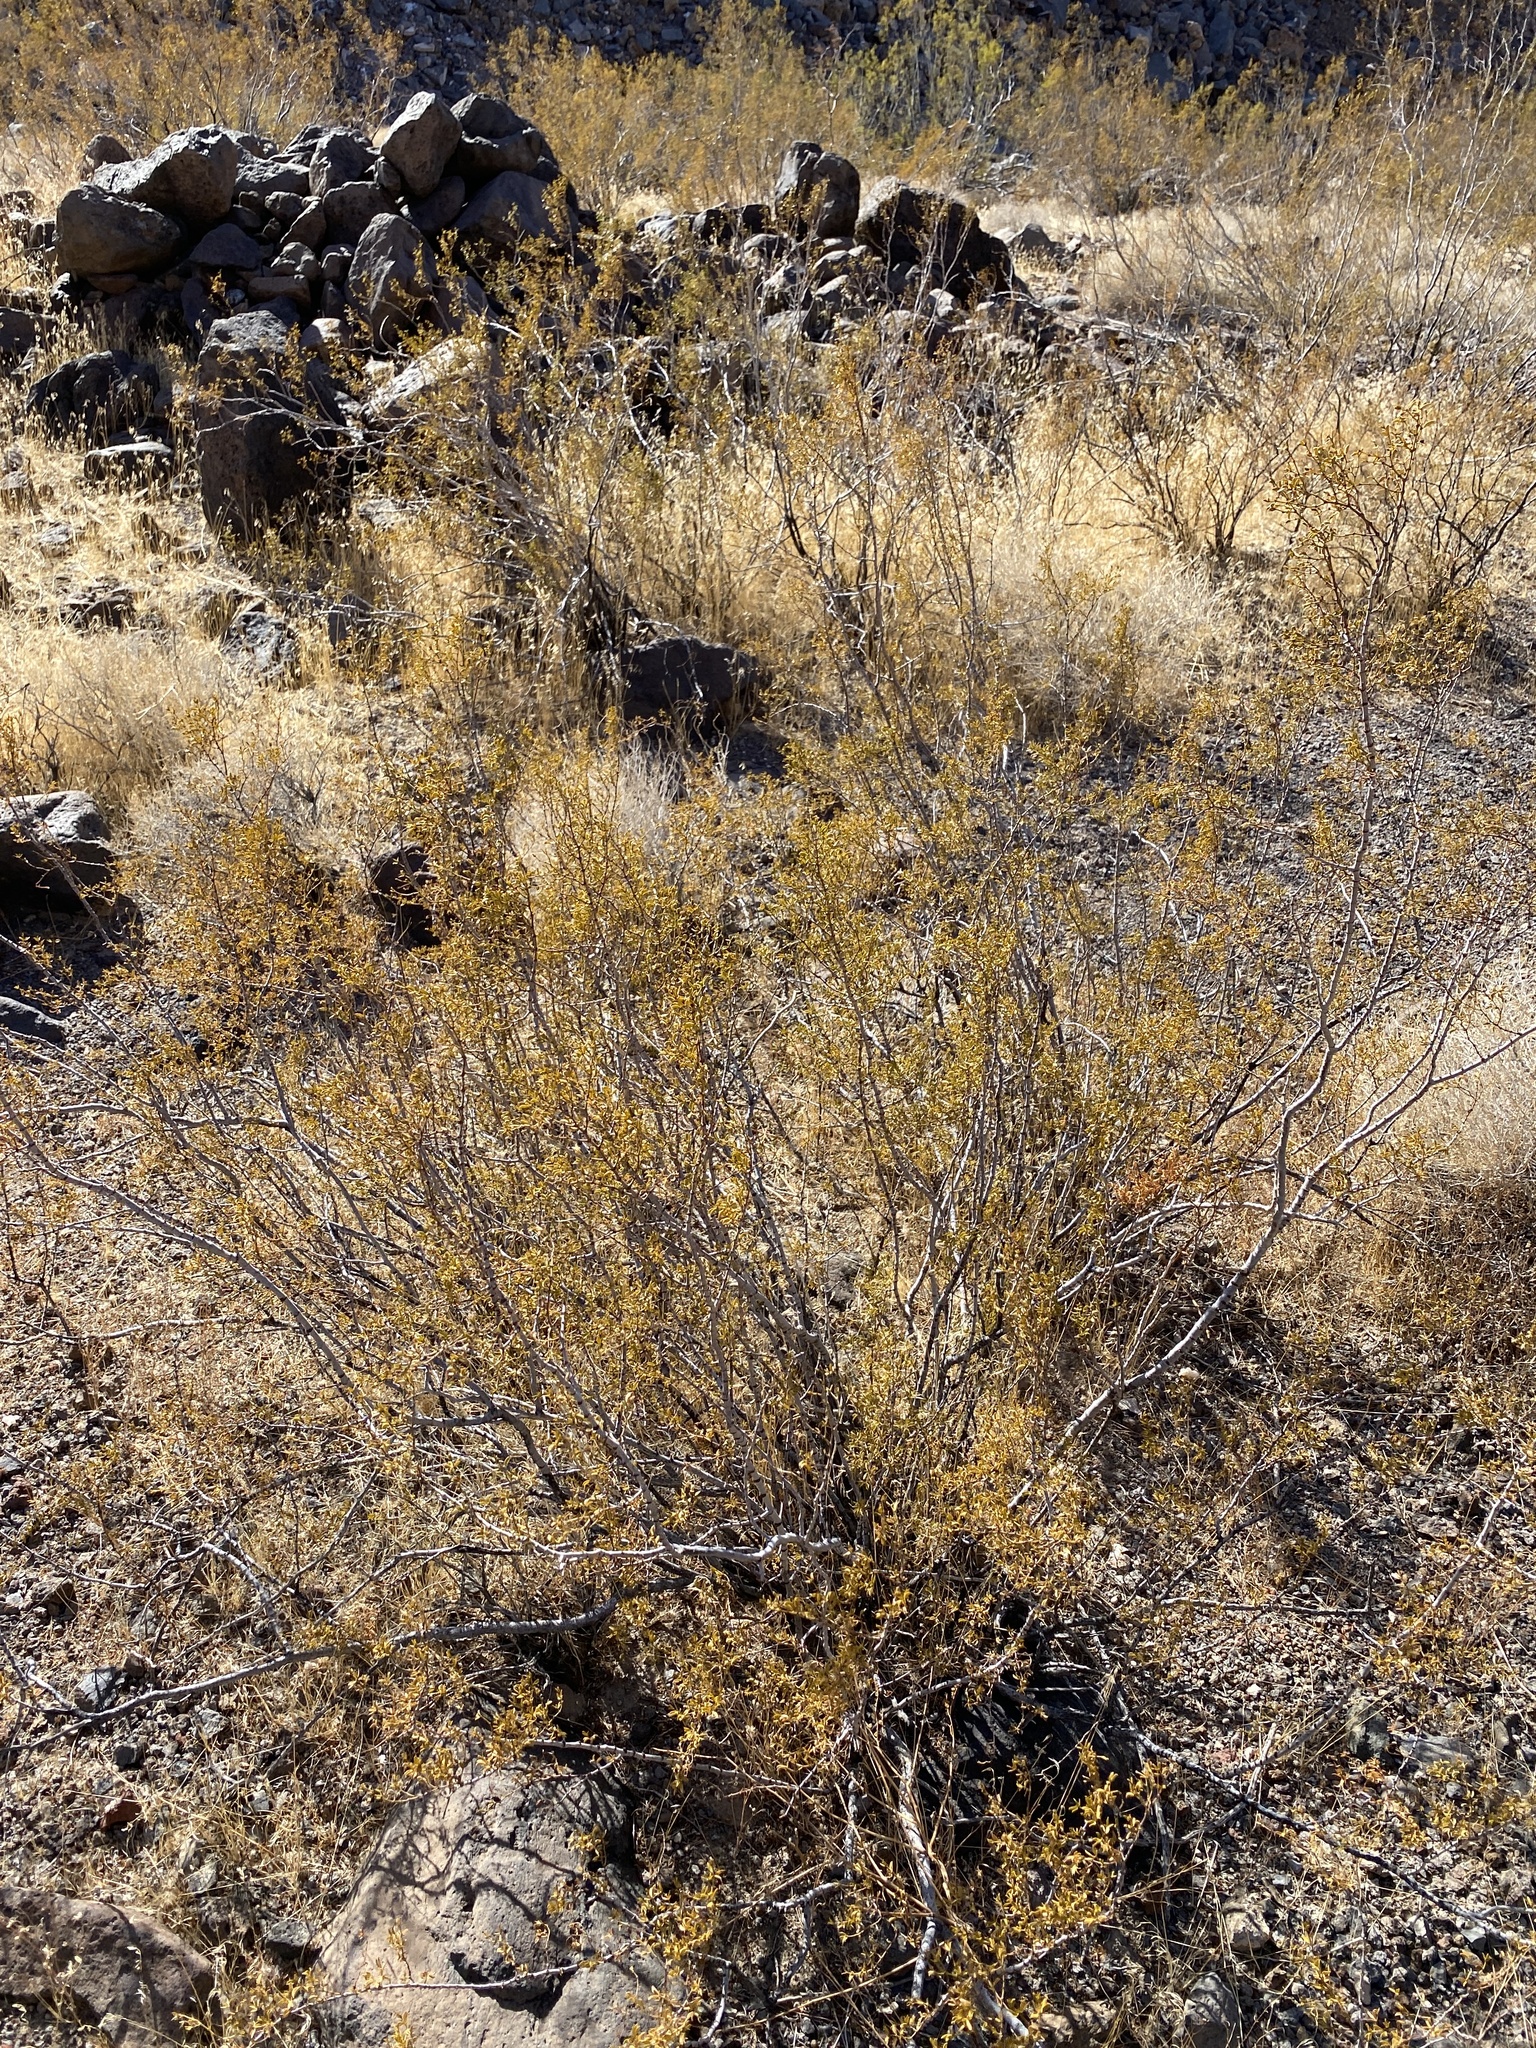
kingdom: Plantae
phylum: Tracheophyta
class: Magnoliopsida
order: Zygophyllales
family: Zygophyllaceae
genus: Larrea
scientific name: Larrea tridentata
